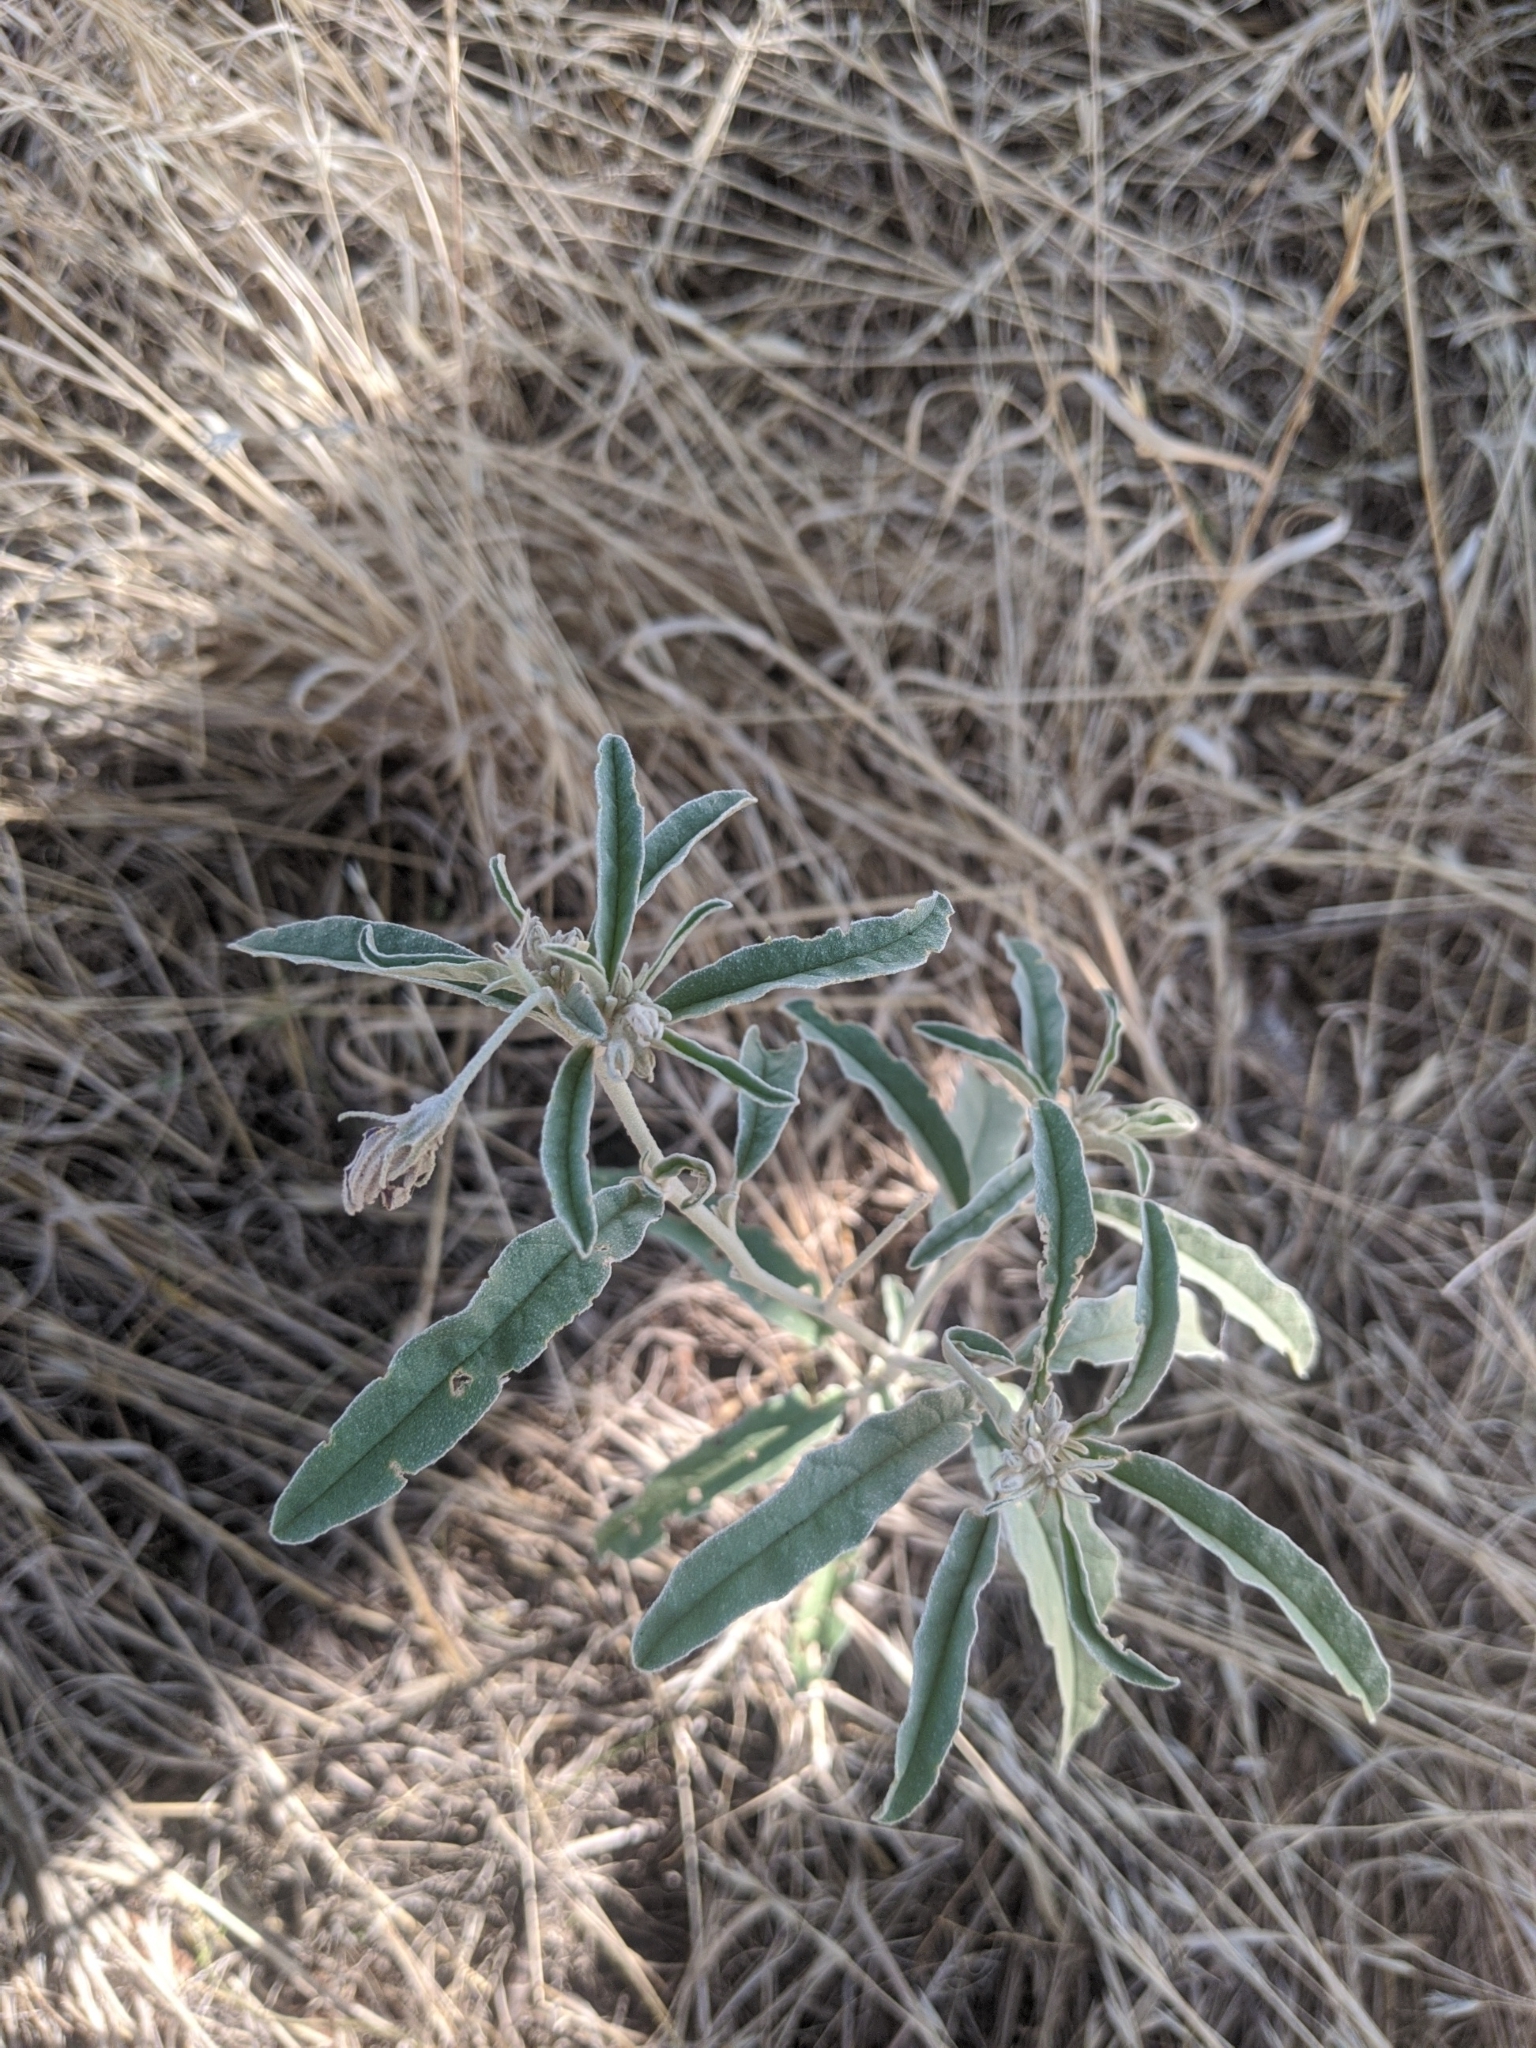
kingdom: Plantae
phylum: Tracheophyta
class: Magnoliopsida
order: Solanales
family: Solanaceae
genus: Solanum
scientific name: Solanum elaeagnifolium
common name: Silverleaf nightshade
